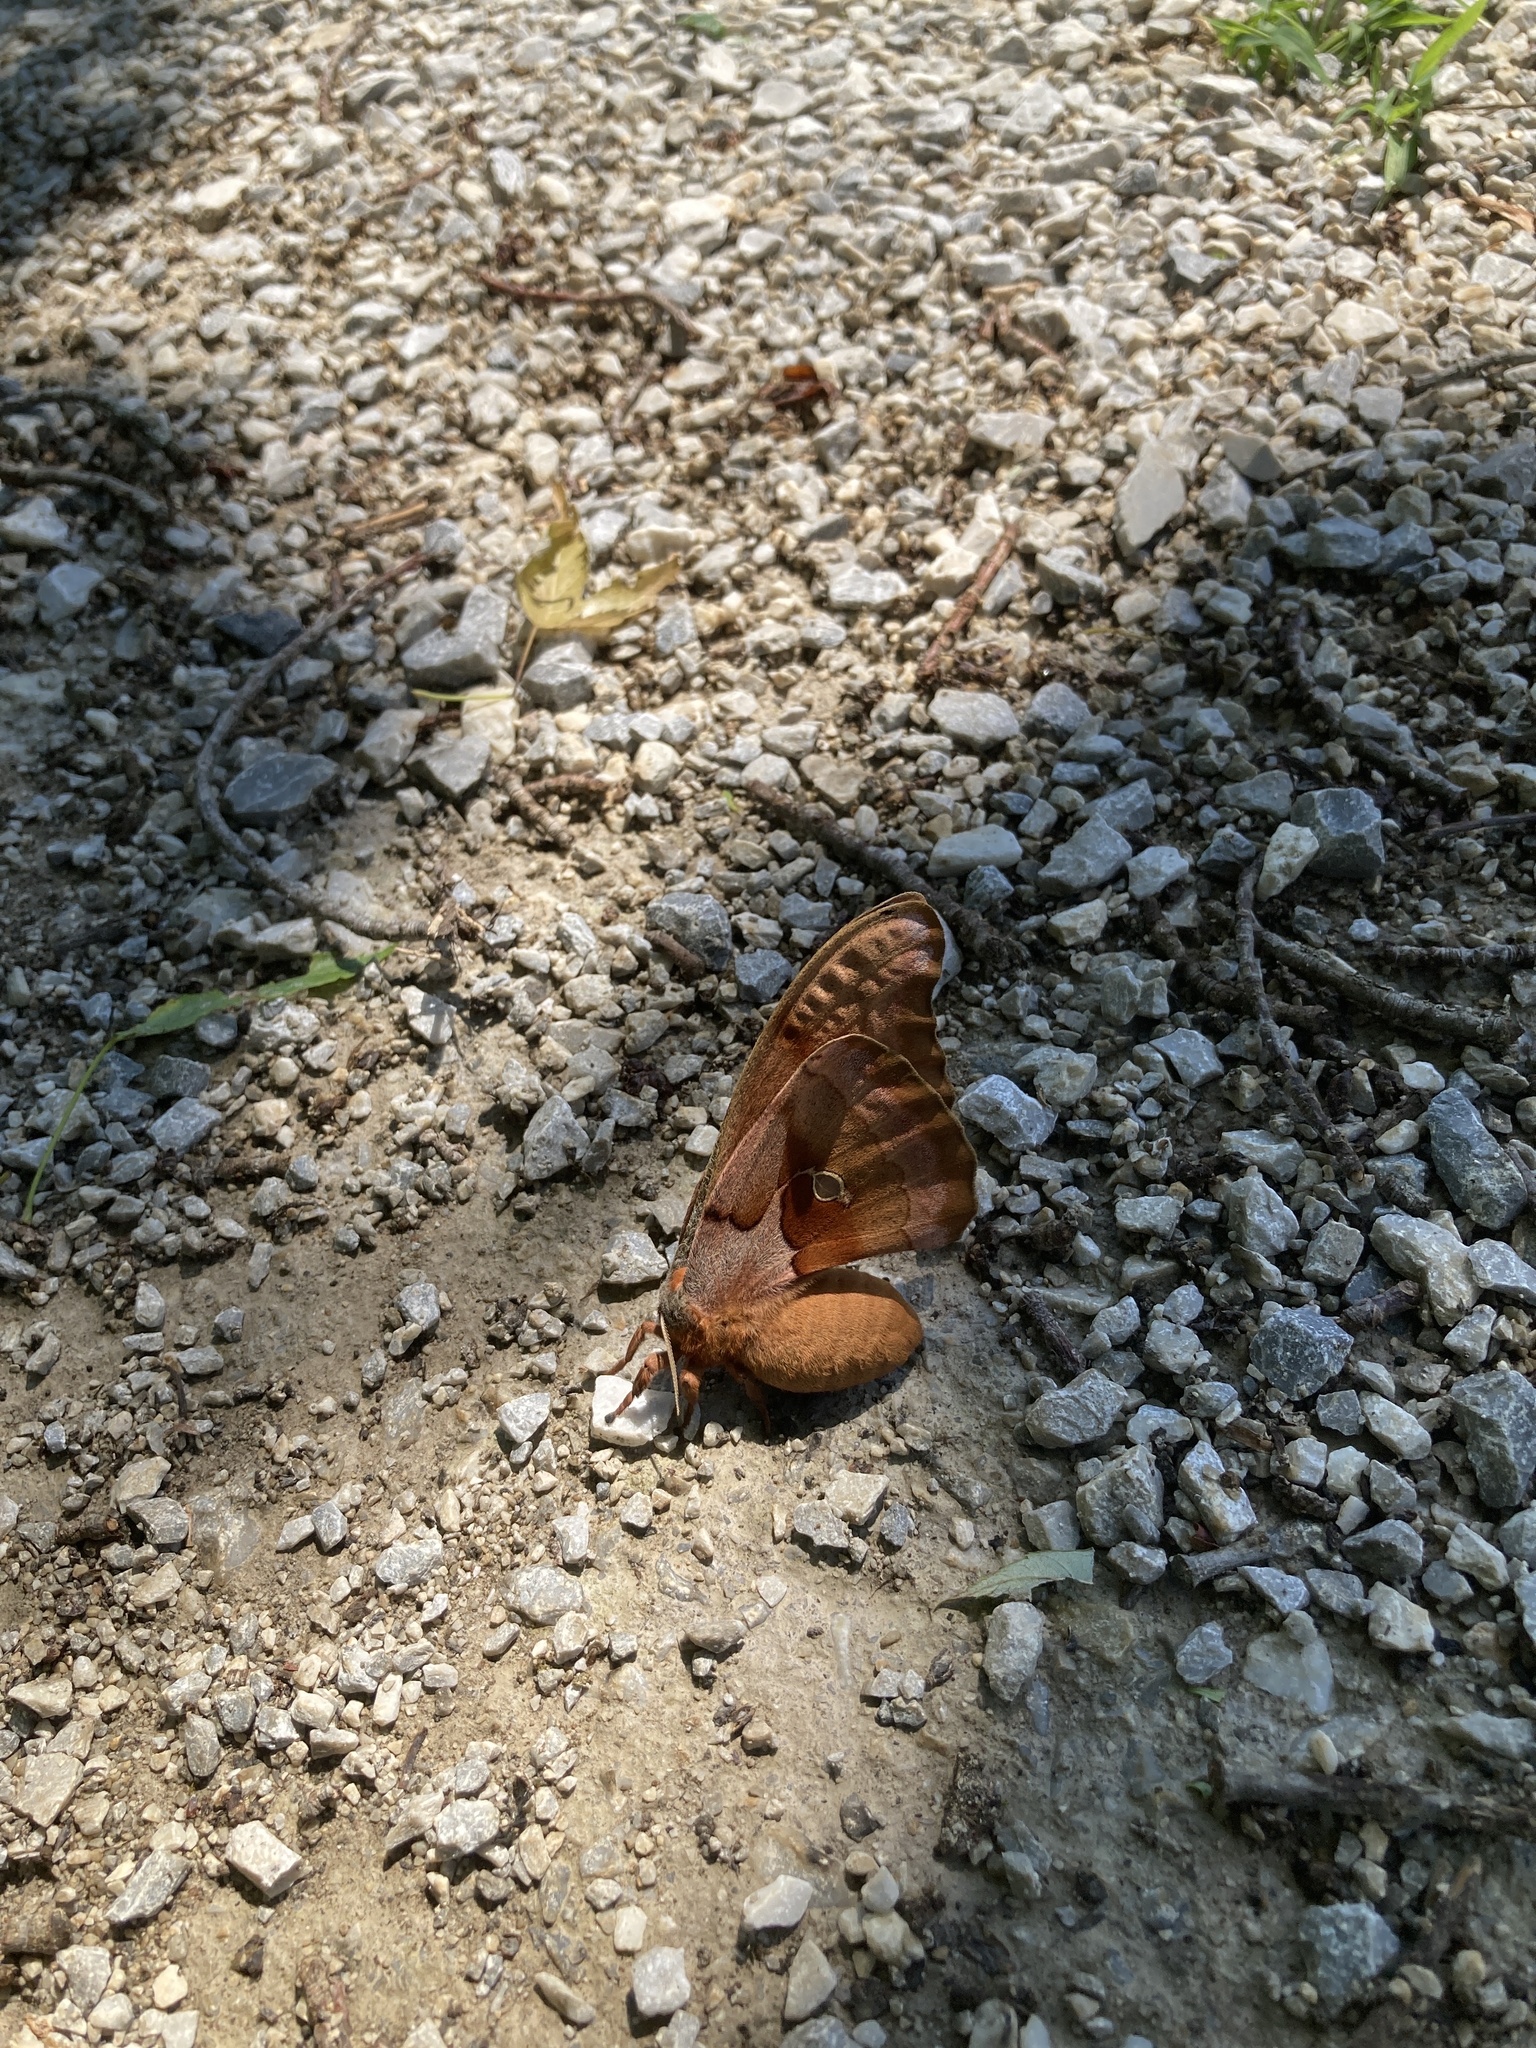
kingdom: Animalia
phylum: Arthropoda
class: Insecta
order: Lepidoptera
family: Saturniidae
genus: Antheraea
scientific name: Antheraea polyphemus
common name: Polyphemus moth
